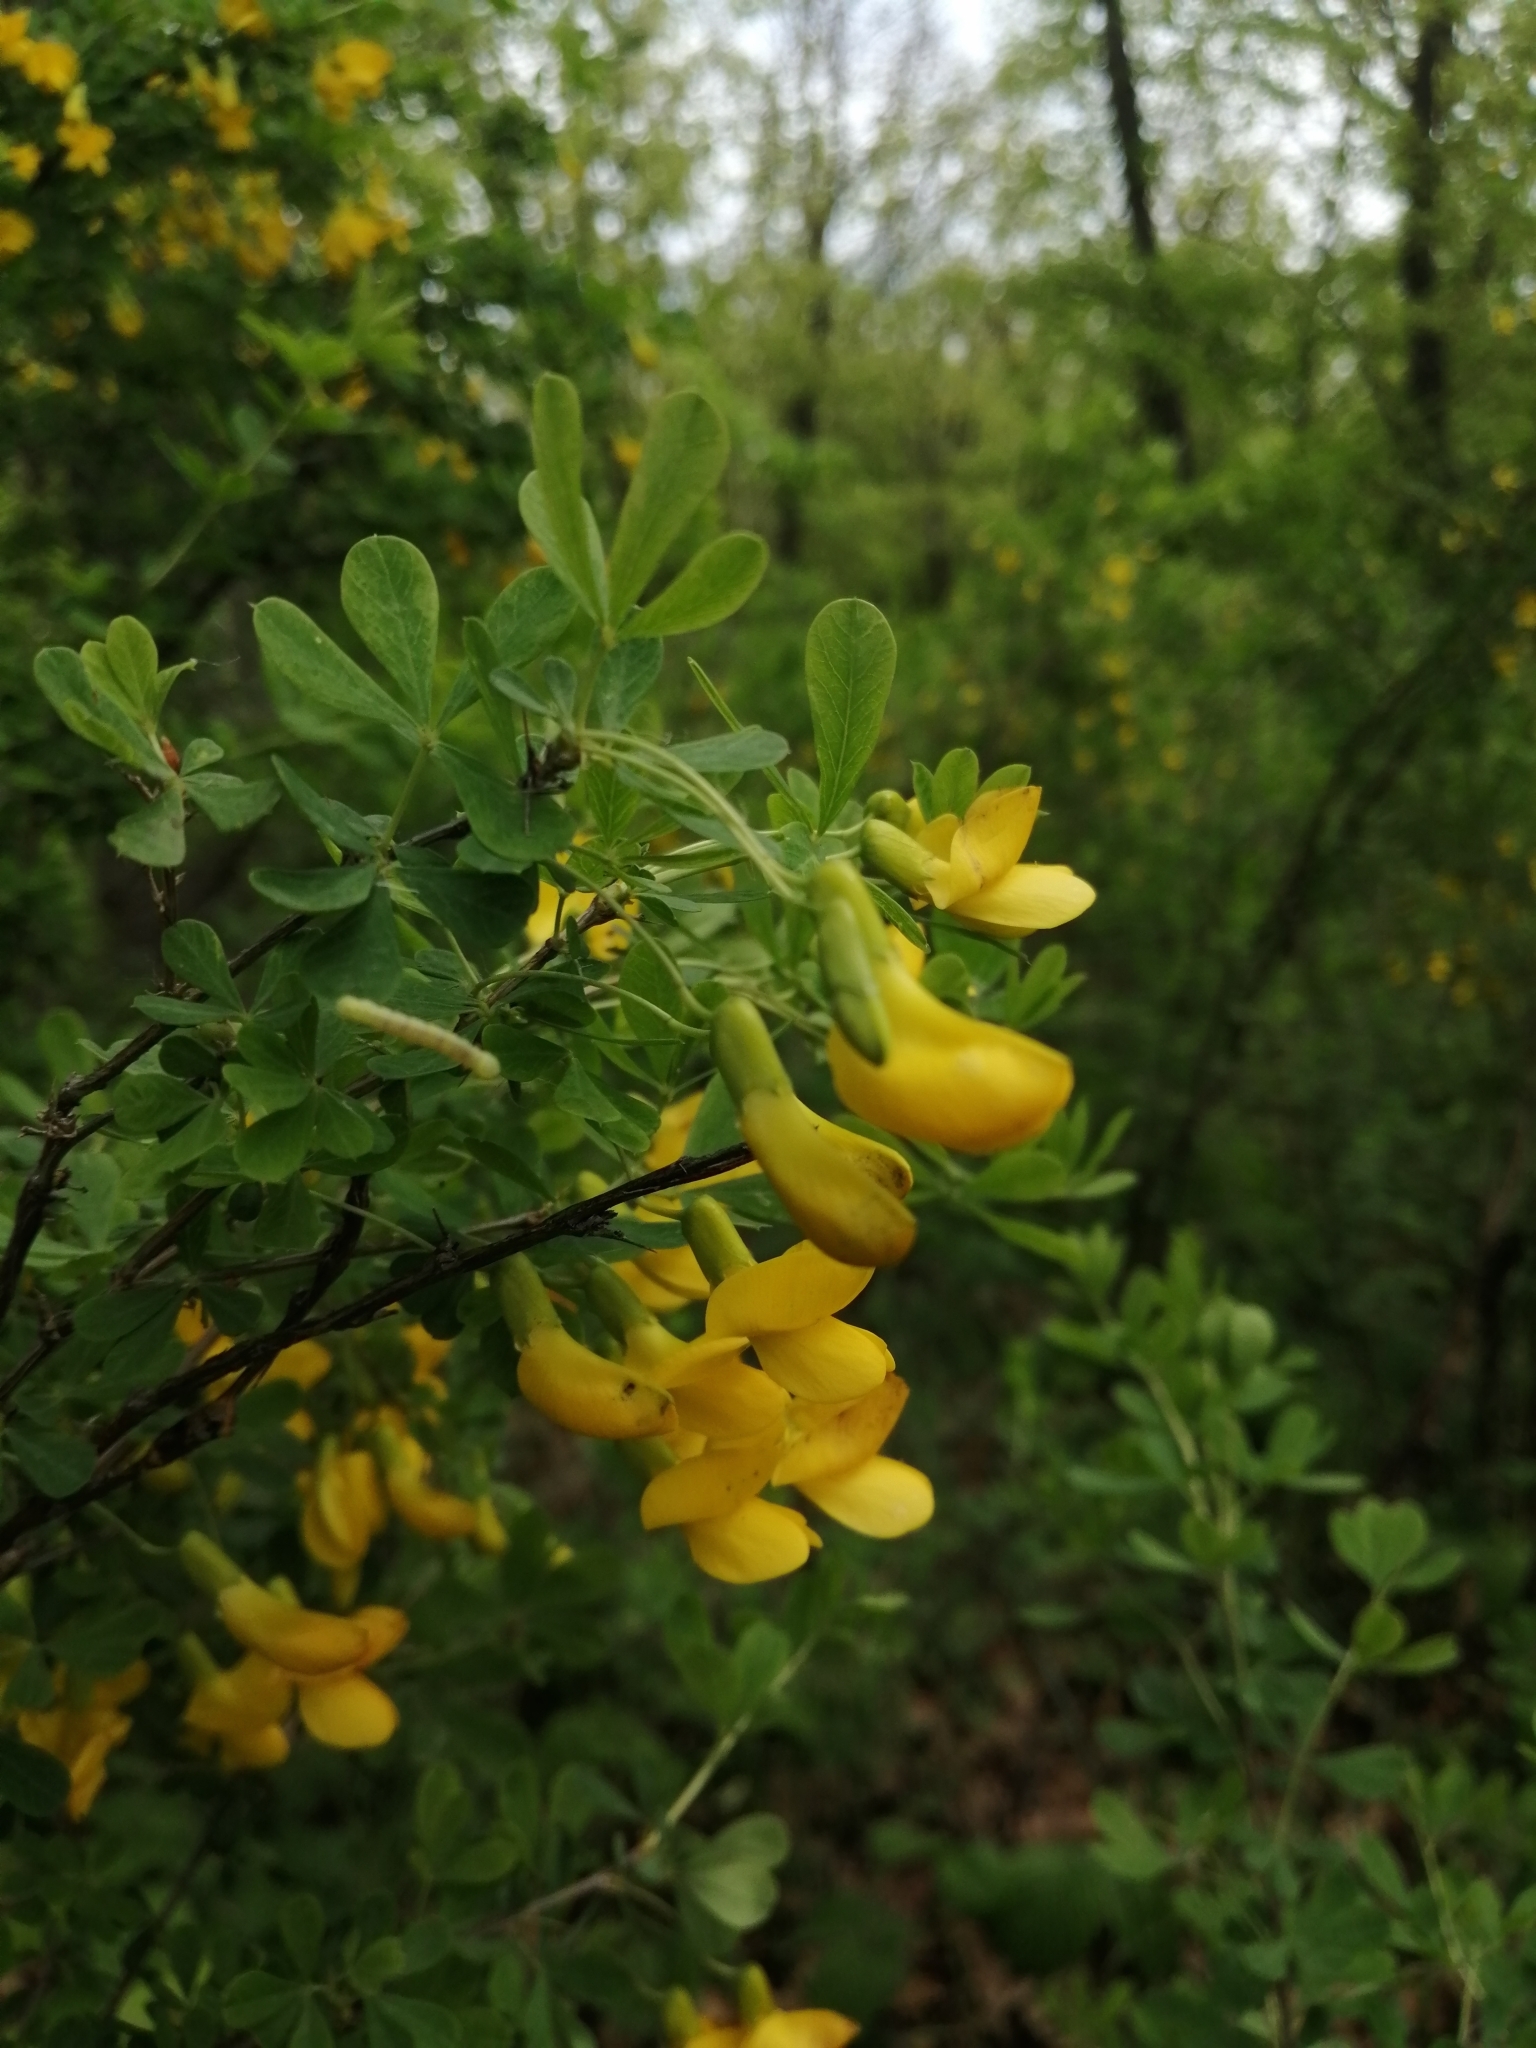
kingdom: Plantae
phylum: Tracheophyta
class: Magnoliopsida
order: Fabales
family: Fabaceae
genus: Caragana
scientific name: Caragana frutex
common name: Russian peashrub
